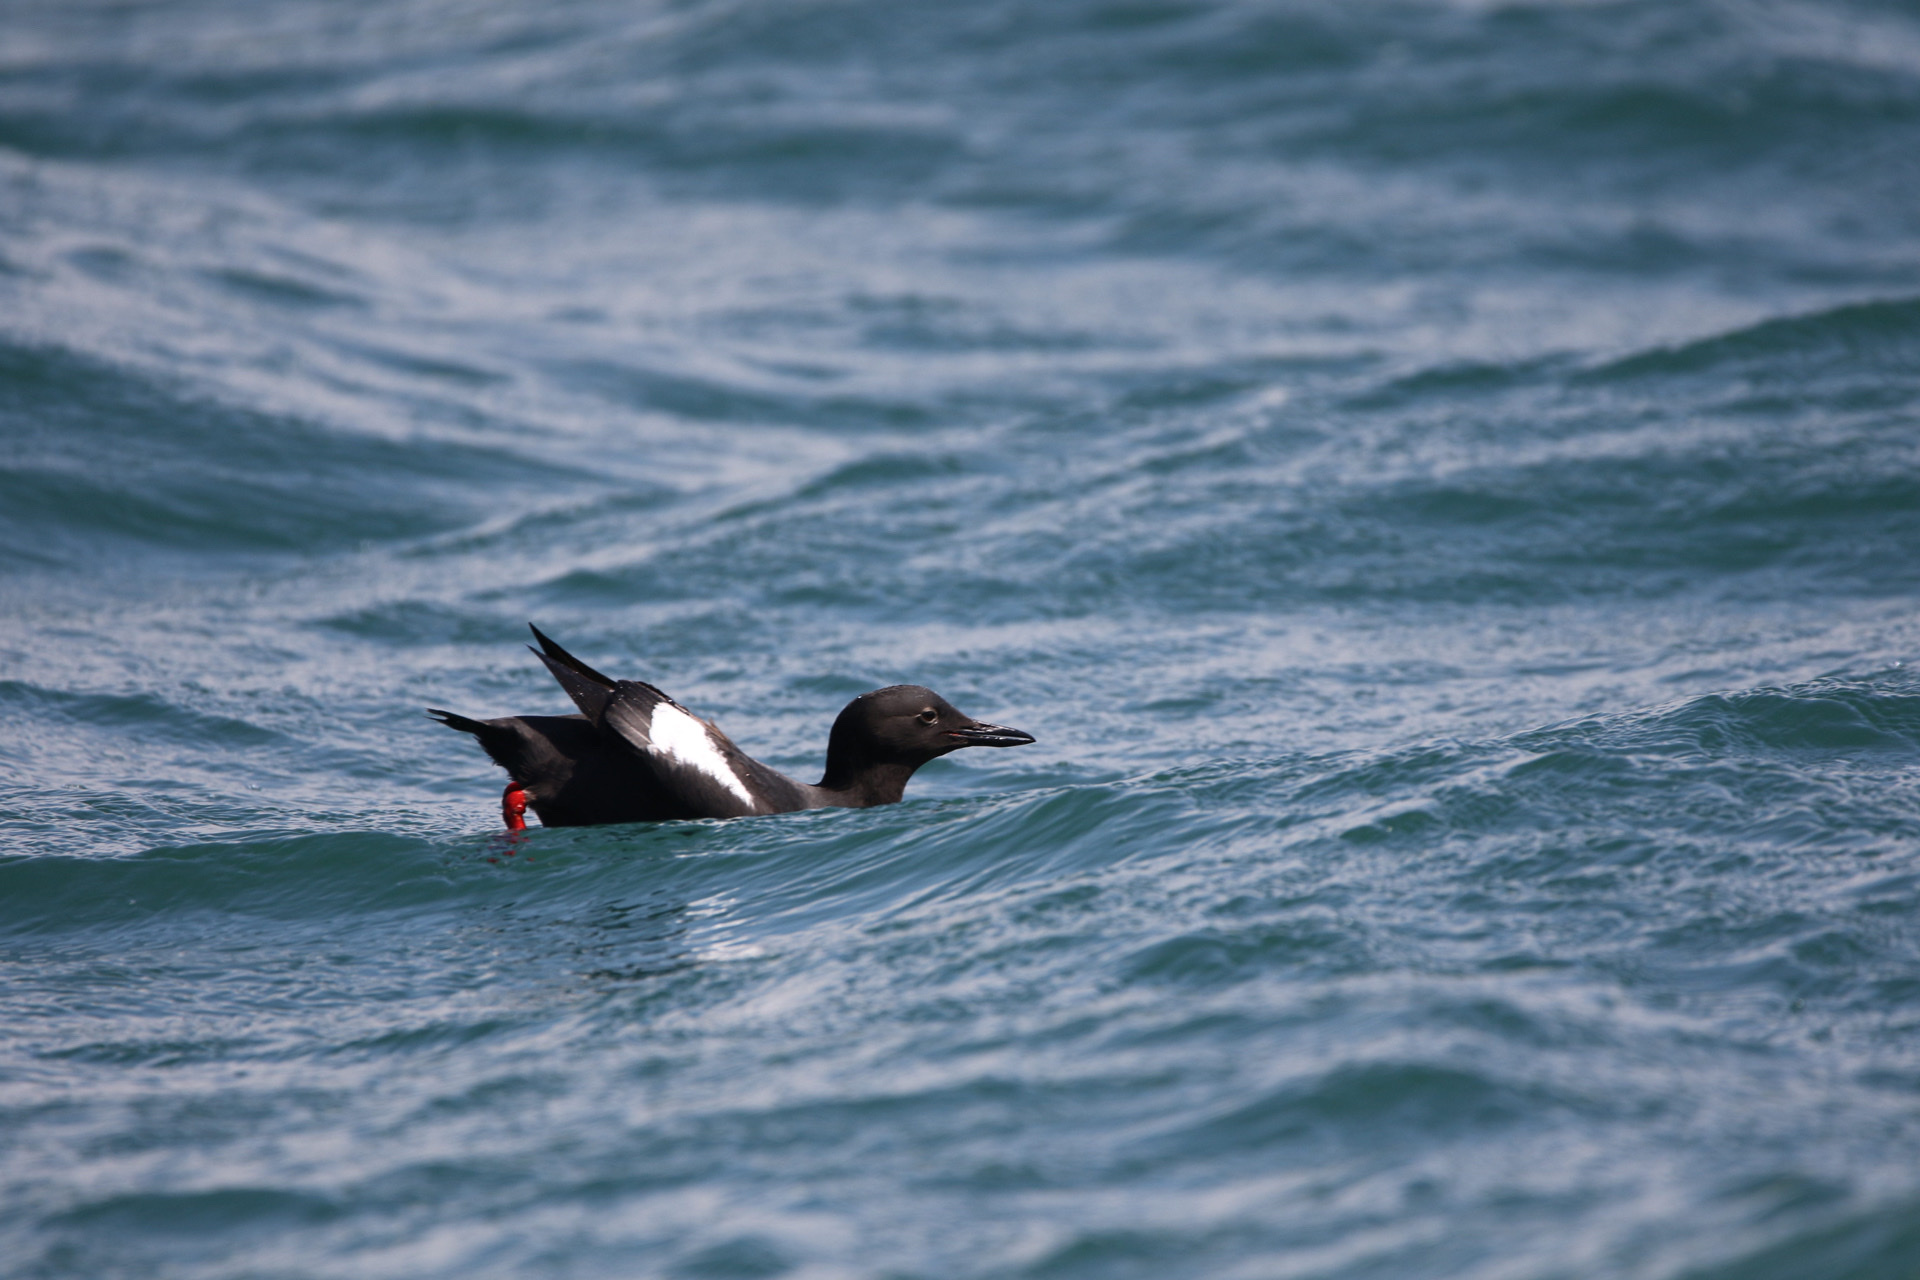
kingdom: Animalia
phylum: Chordata
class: Aves
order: Charadriiformes
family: Alcidae
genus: Cepphus
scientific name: Cepphus columba
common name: Pigeon guillemot
